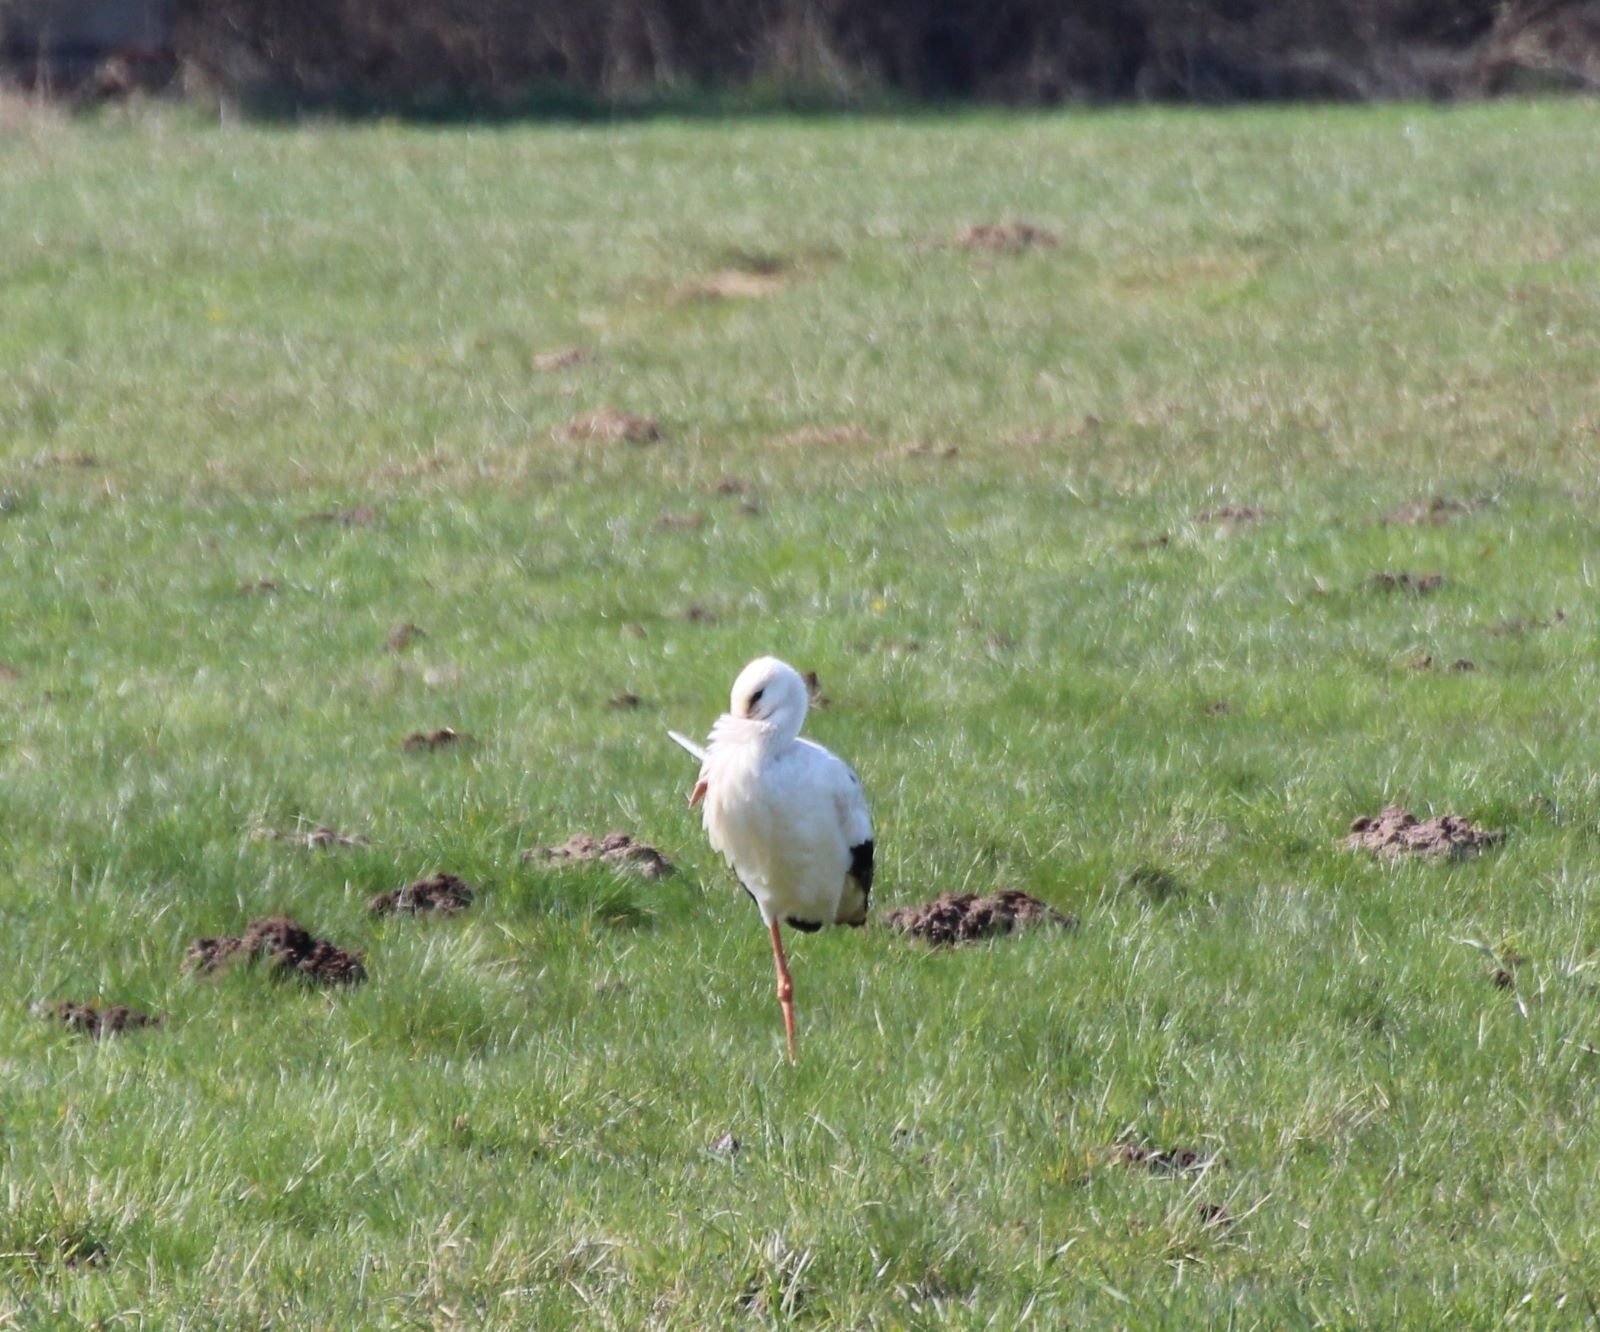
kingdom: Animalia
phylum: Chordata
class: Aves
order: Ciconiiformes
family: Ciconiidae
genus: Ciconia
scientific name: Ciconia ciconia
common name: White stork
